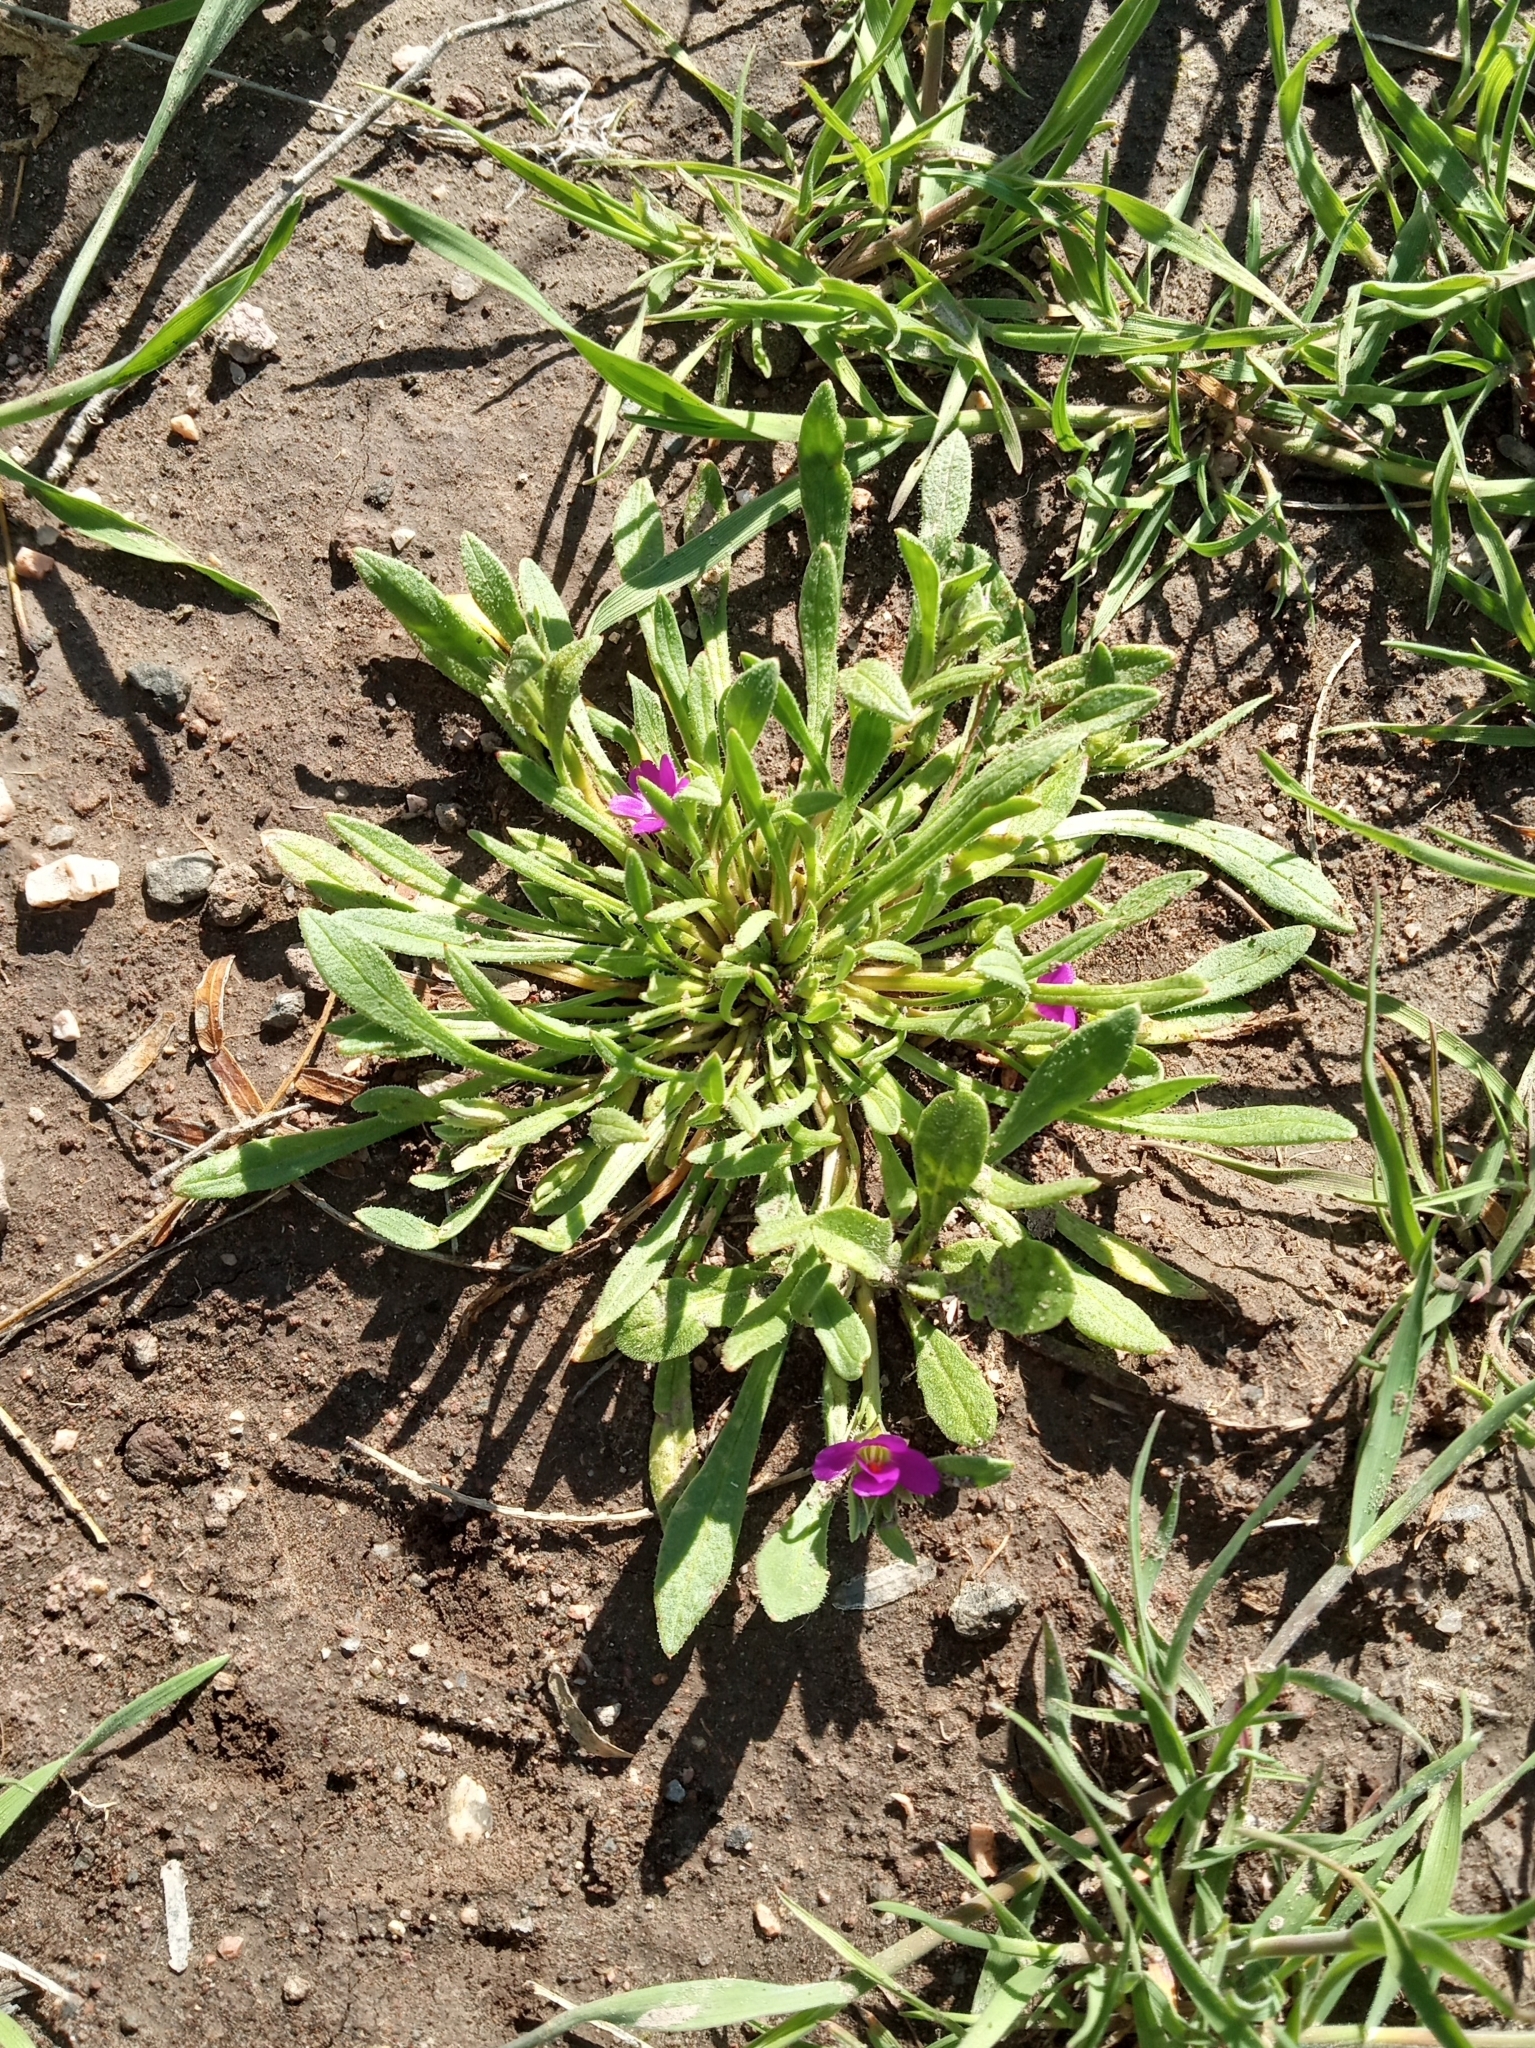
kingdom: Plantae
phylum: Tracheophyta
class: Magnoliopsida
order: Caryophyllales
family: Montiaceae
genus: Calandrinia
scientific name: Calandrinia ciliata
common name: Red-maids
